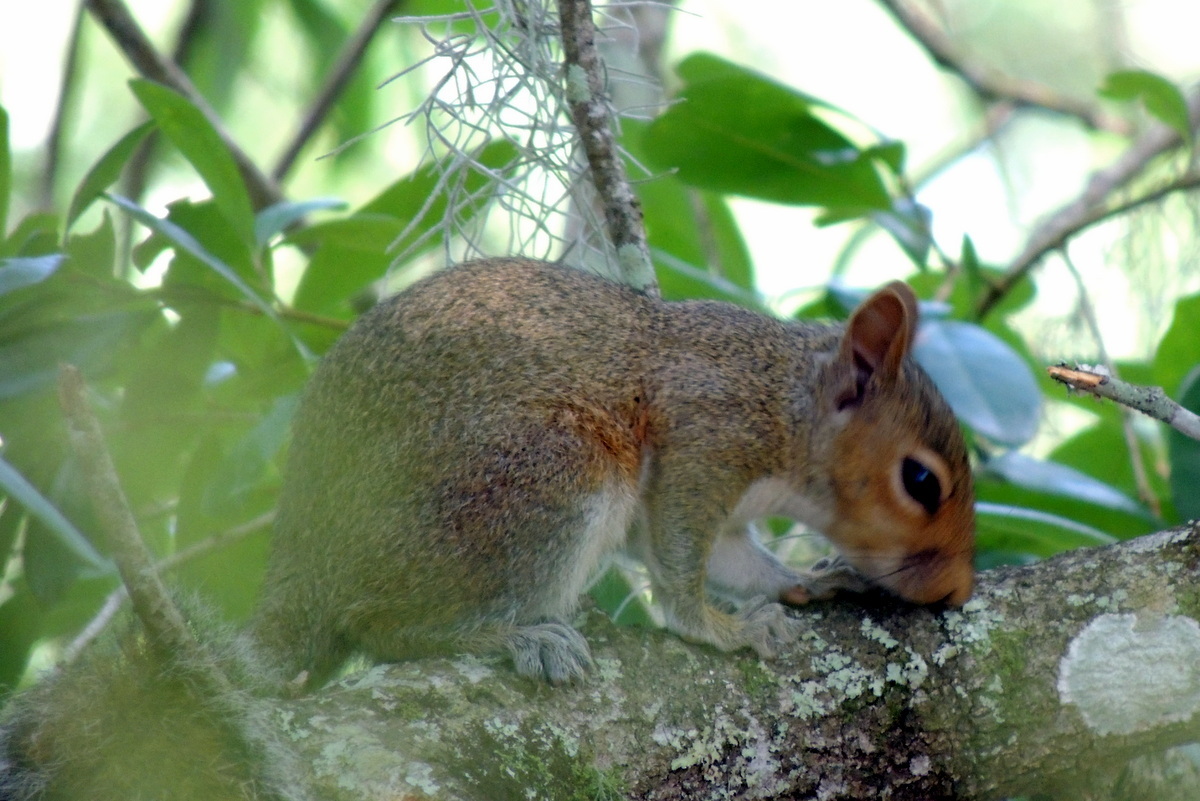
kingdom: Animalia
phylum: Chordata
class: Mammalia
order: Rodentia
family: Sciuridae
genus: Sciurus
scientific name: Sciurus carolinensis
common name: Eastern gray squirrel
